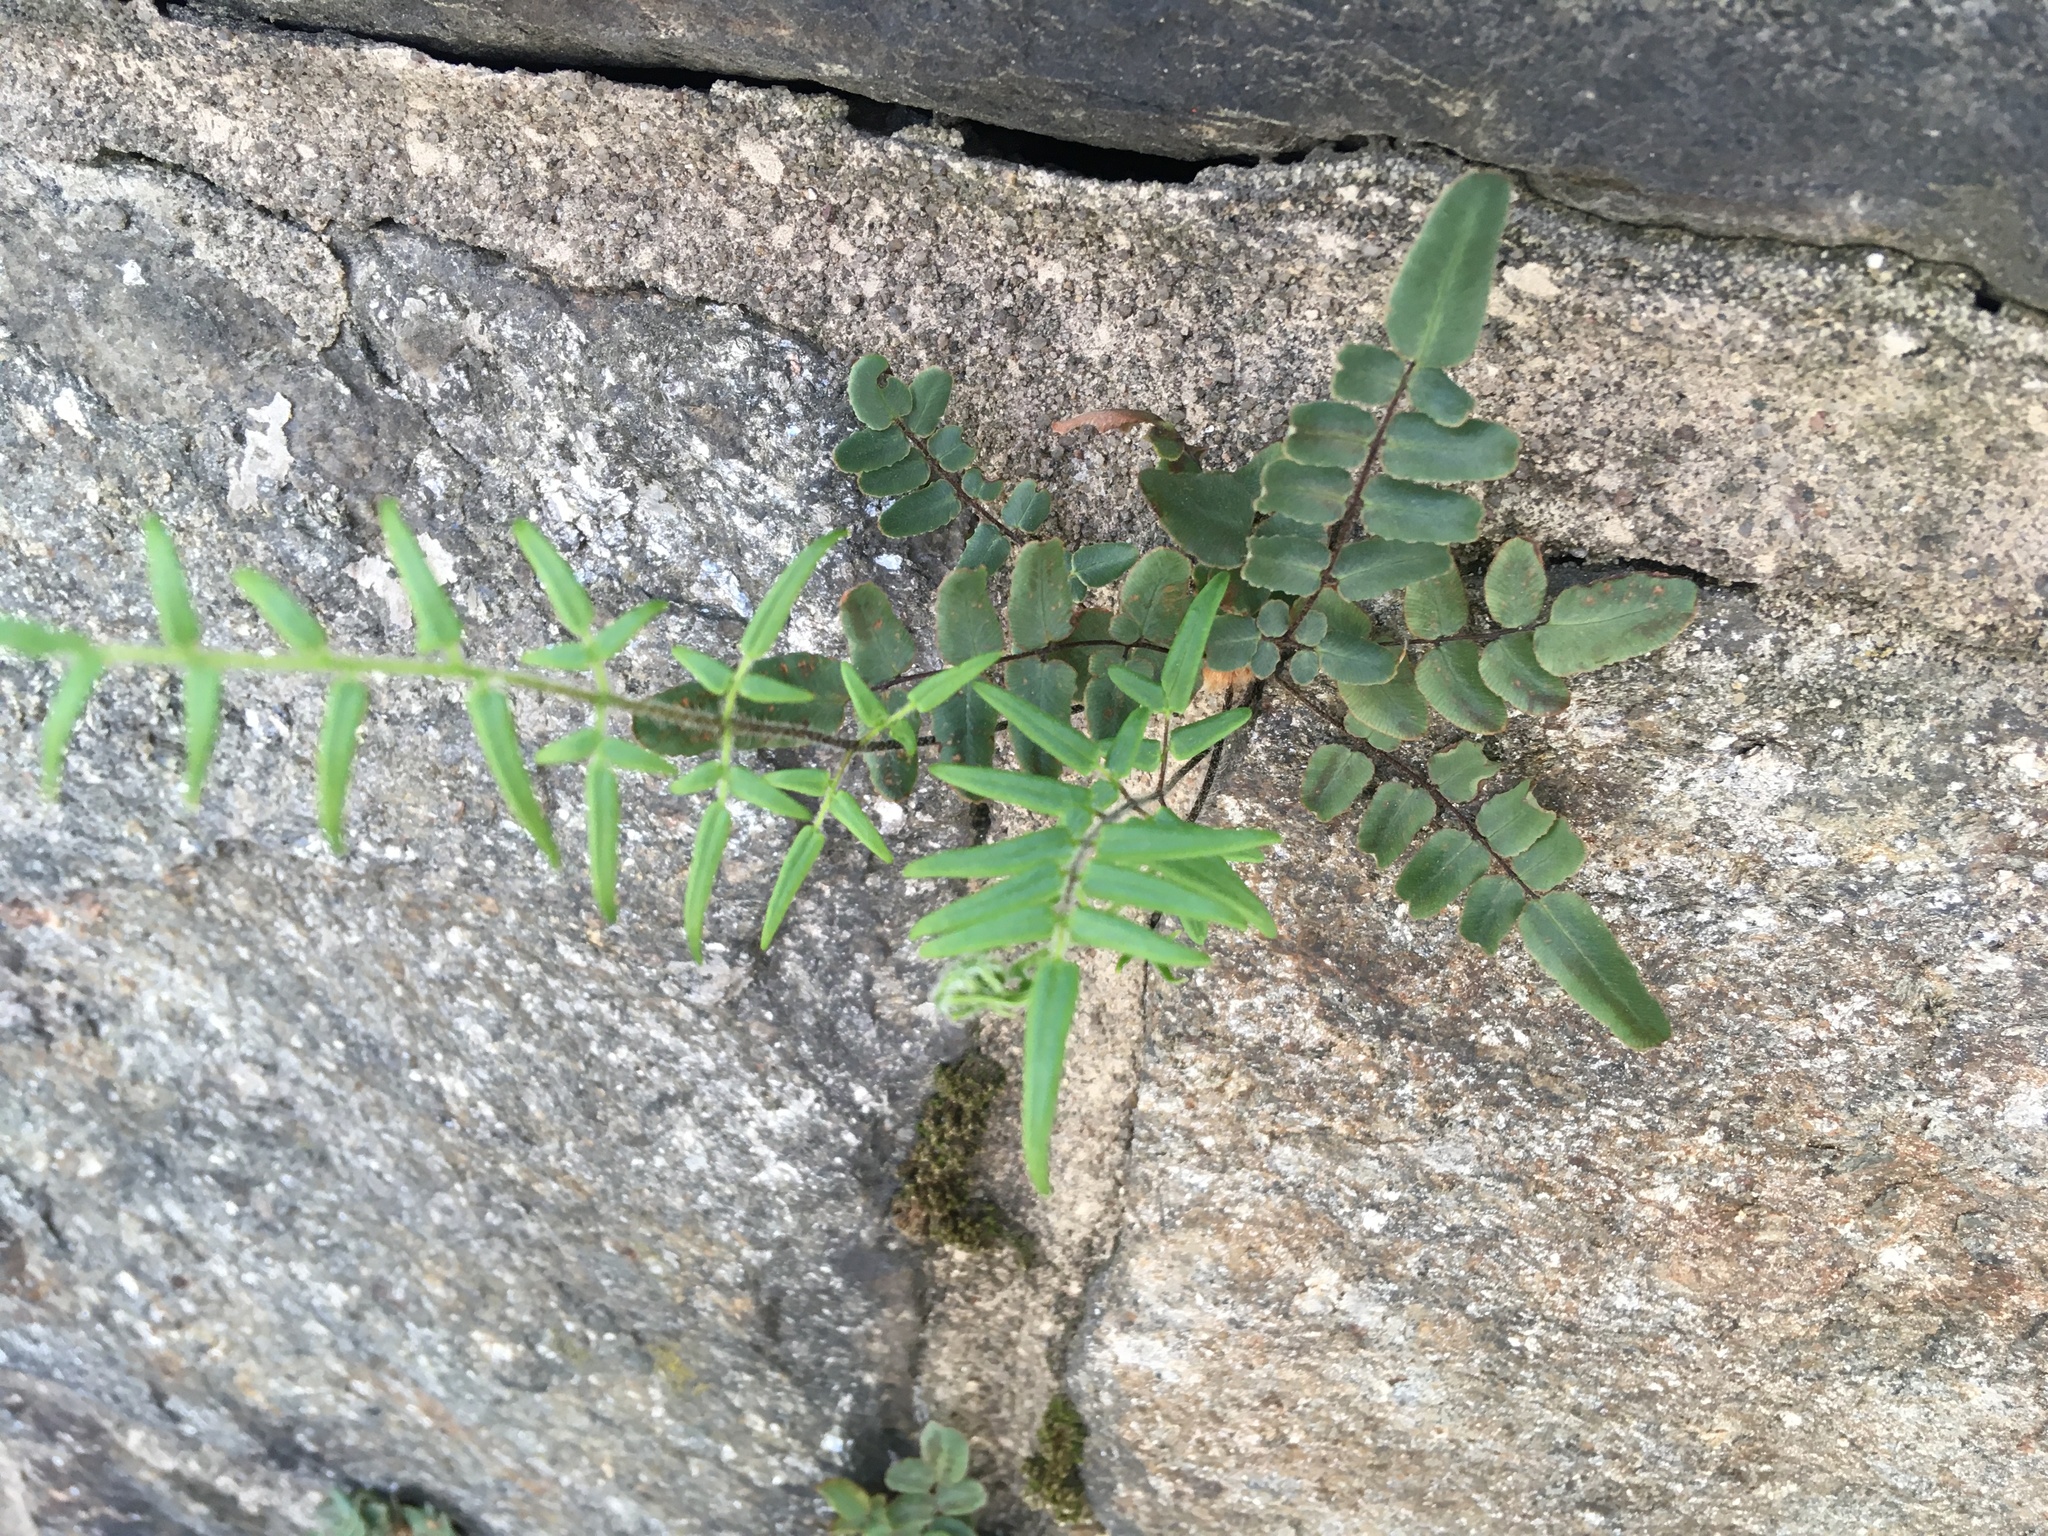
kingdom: Plantae
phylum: Tracheophyta
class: Polypodiopsida
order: Polypodiales
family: Pteridaceae
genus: Pellaea
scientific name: Pellaea atropurpurea
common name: Hairy cliffbrake
